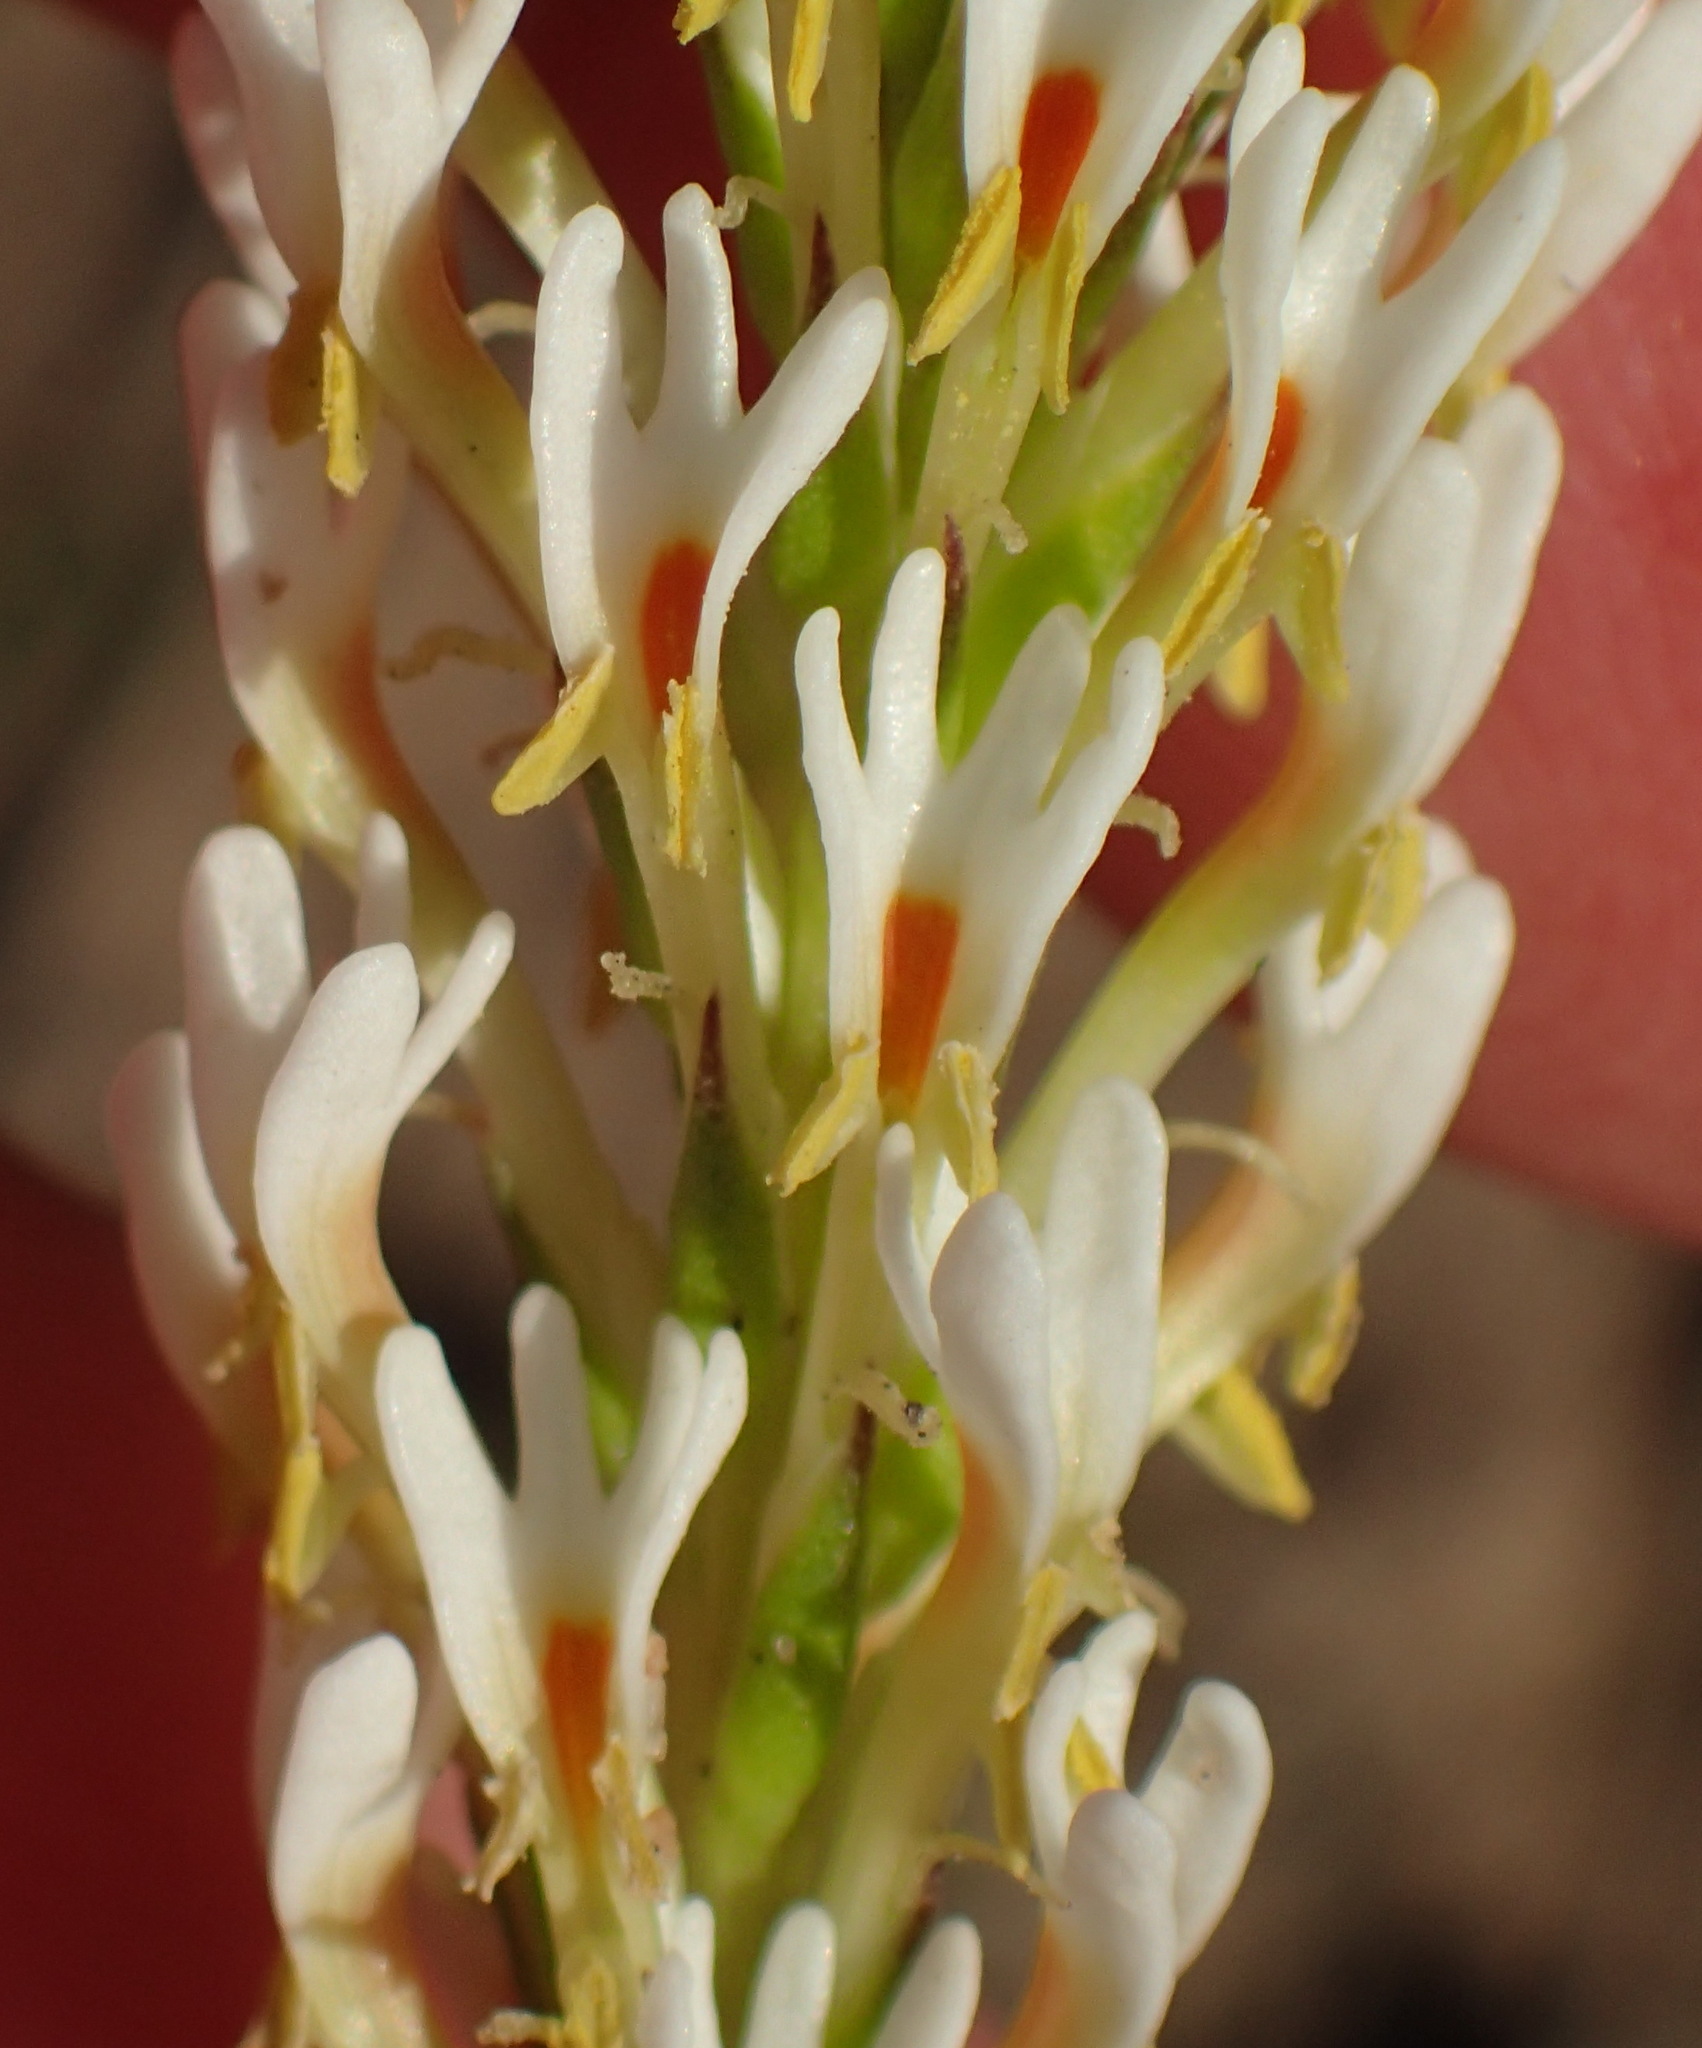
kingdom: Plantae
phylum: Tracheophyta
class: Magnoliopsida
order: Lamiales
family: Scrophulariaceae
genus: Hebenstretia
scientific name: Hebenstretia integrifolia
